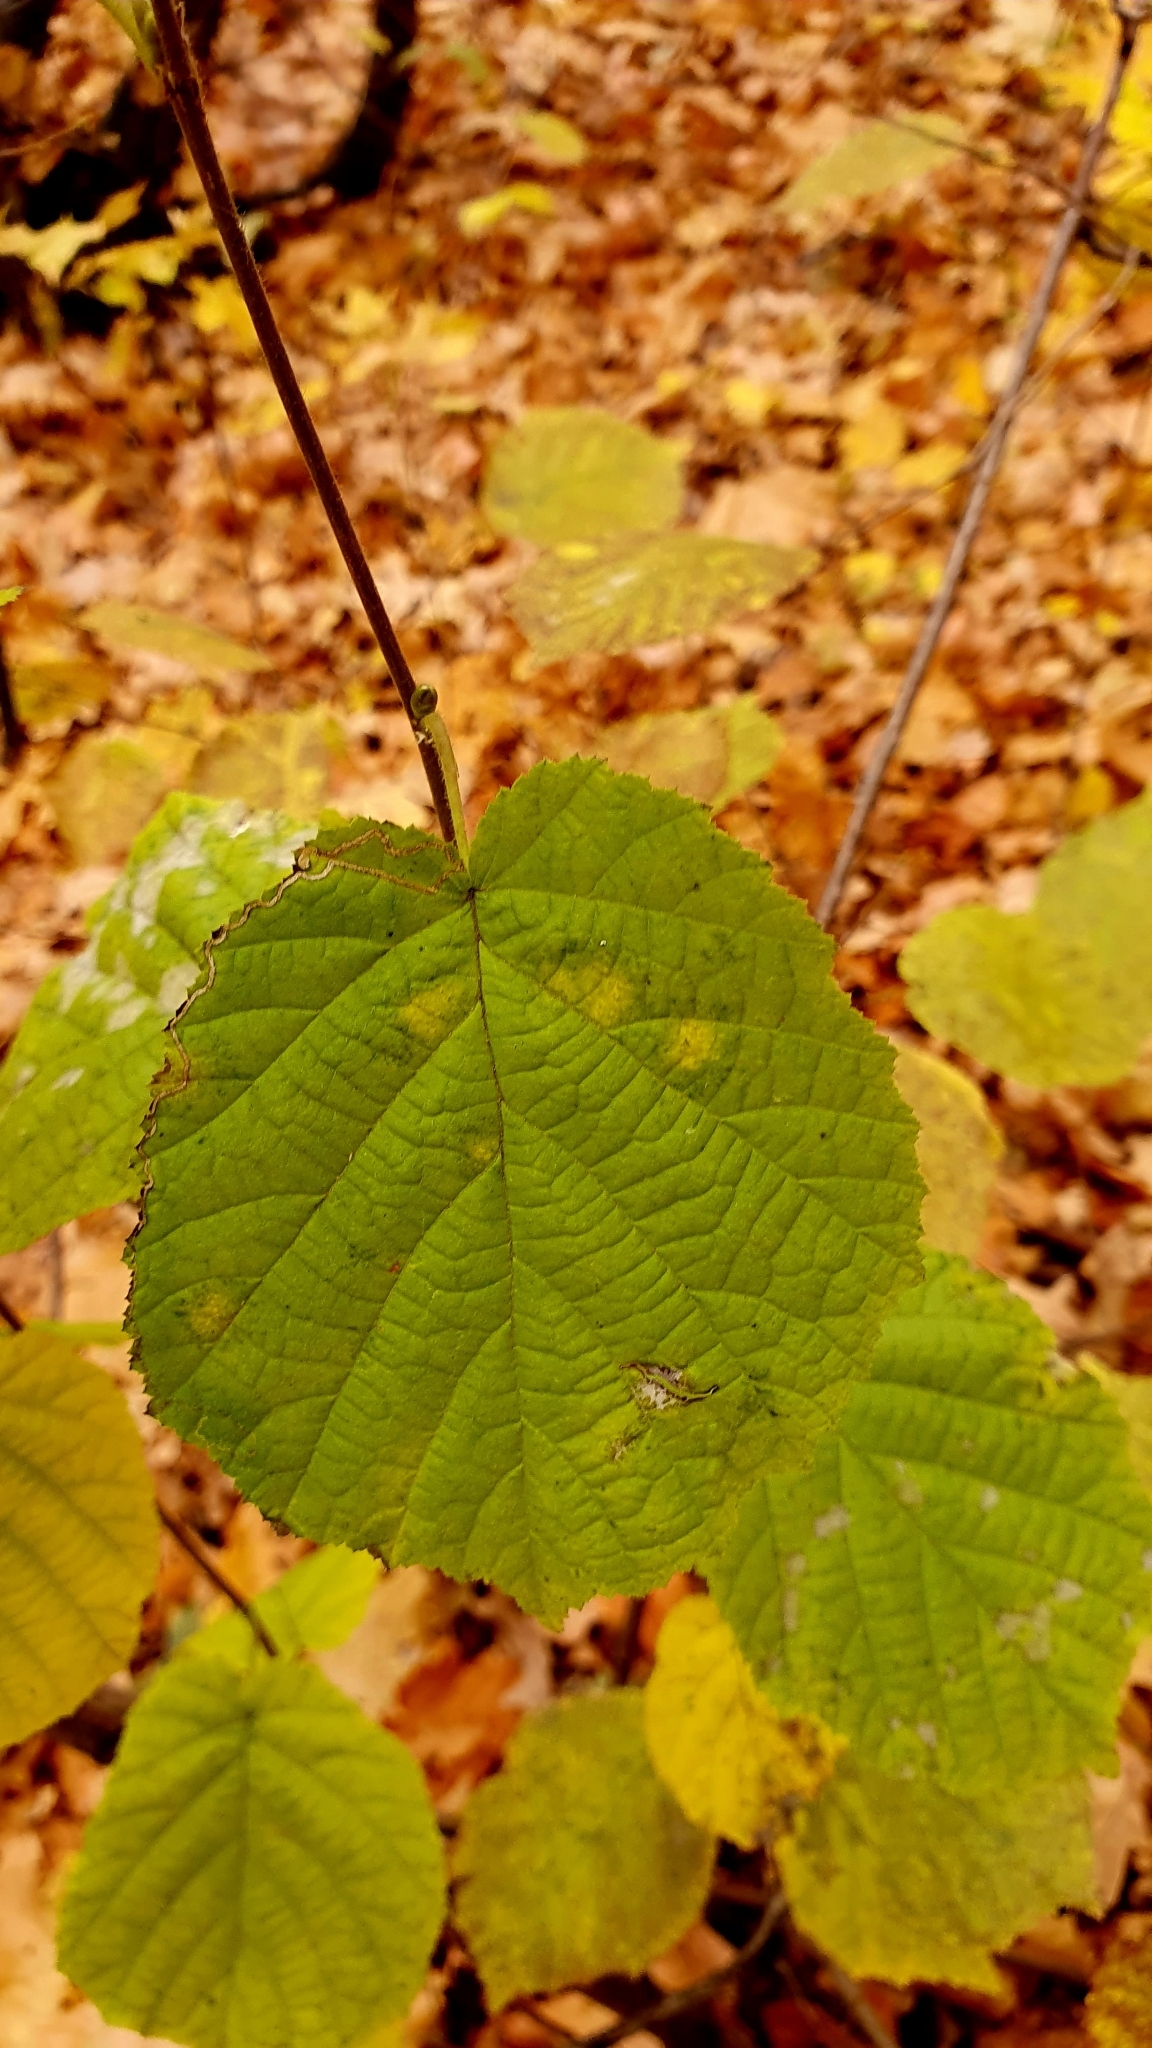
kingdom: Plantae
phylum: Tracheophyta
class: Magnoliopsida
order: Fagales
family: Betulaceae
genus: Corylus
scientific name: Corylus avellana
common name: European hazel
